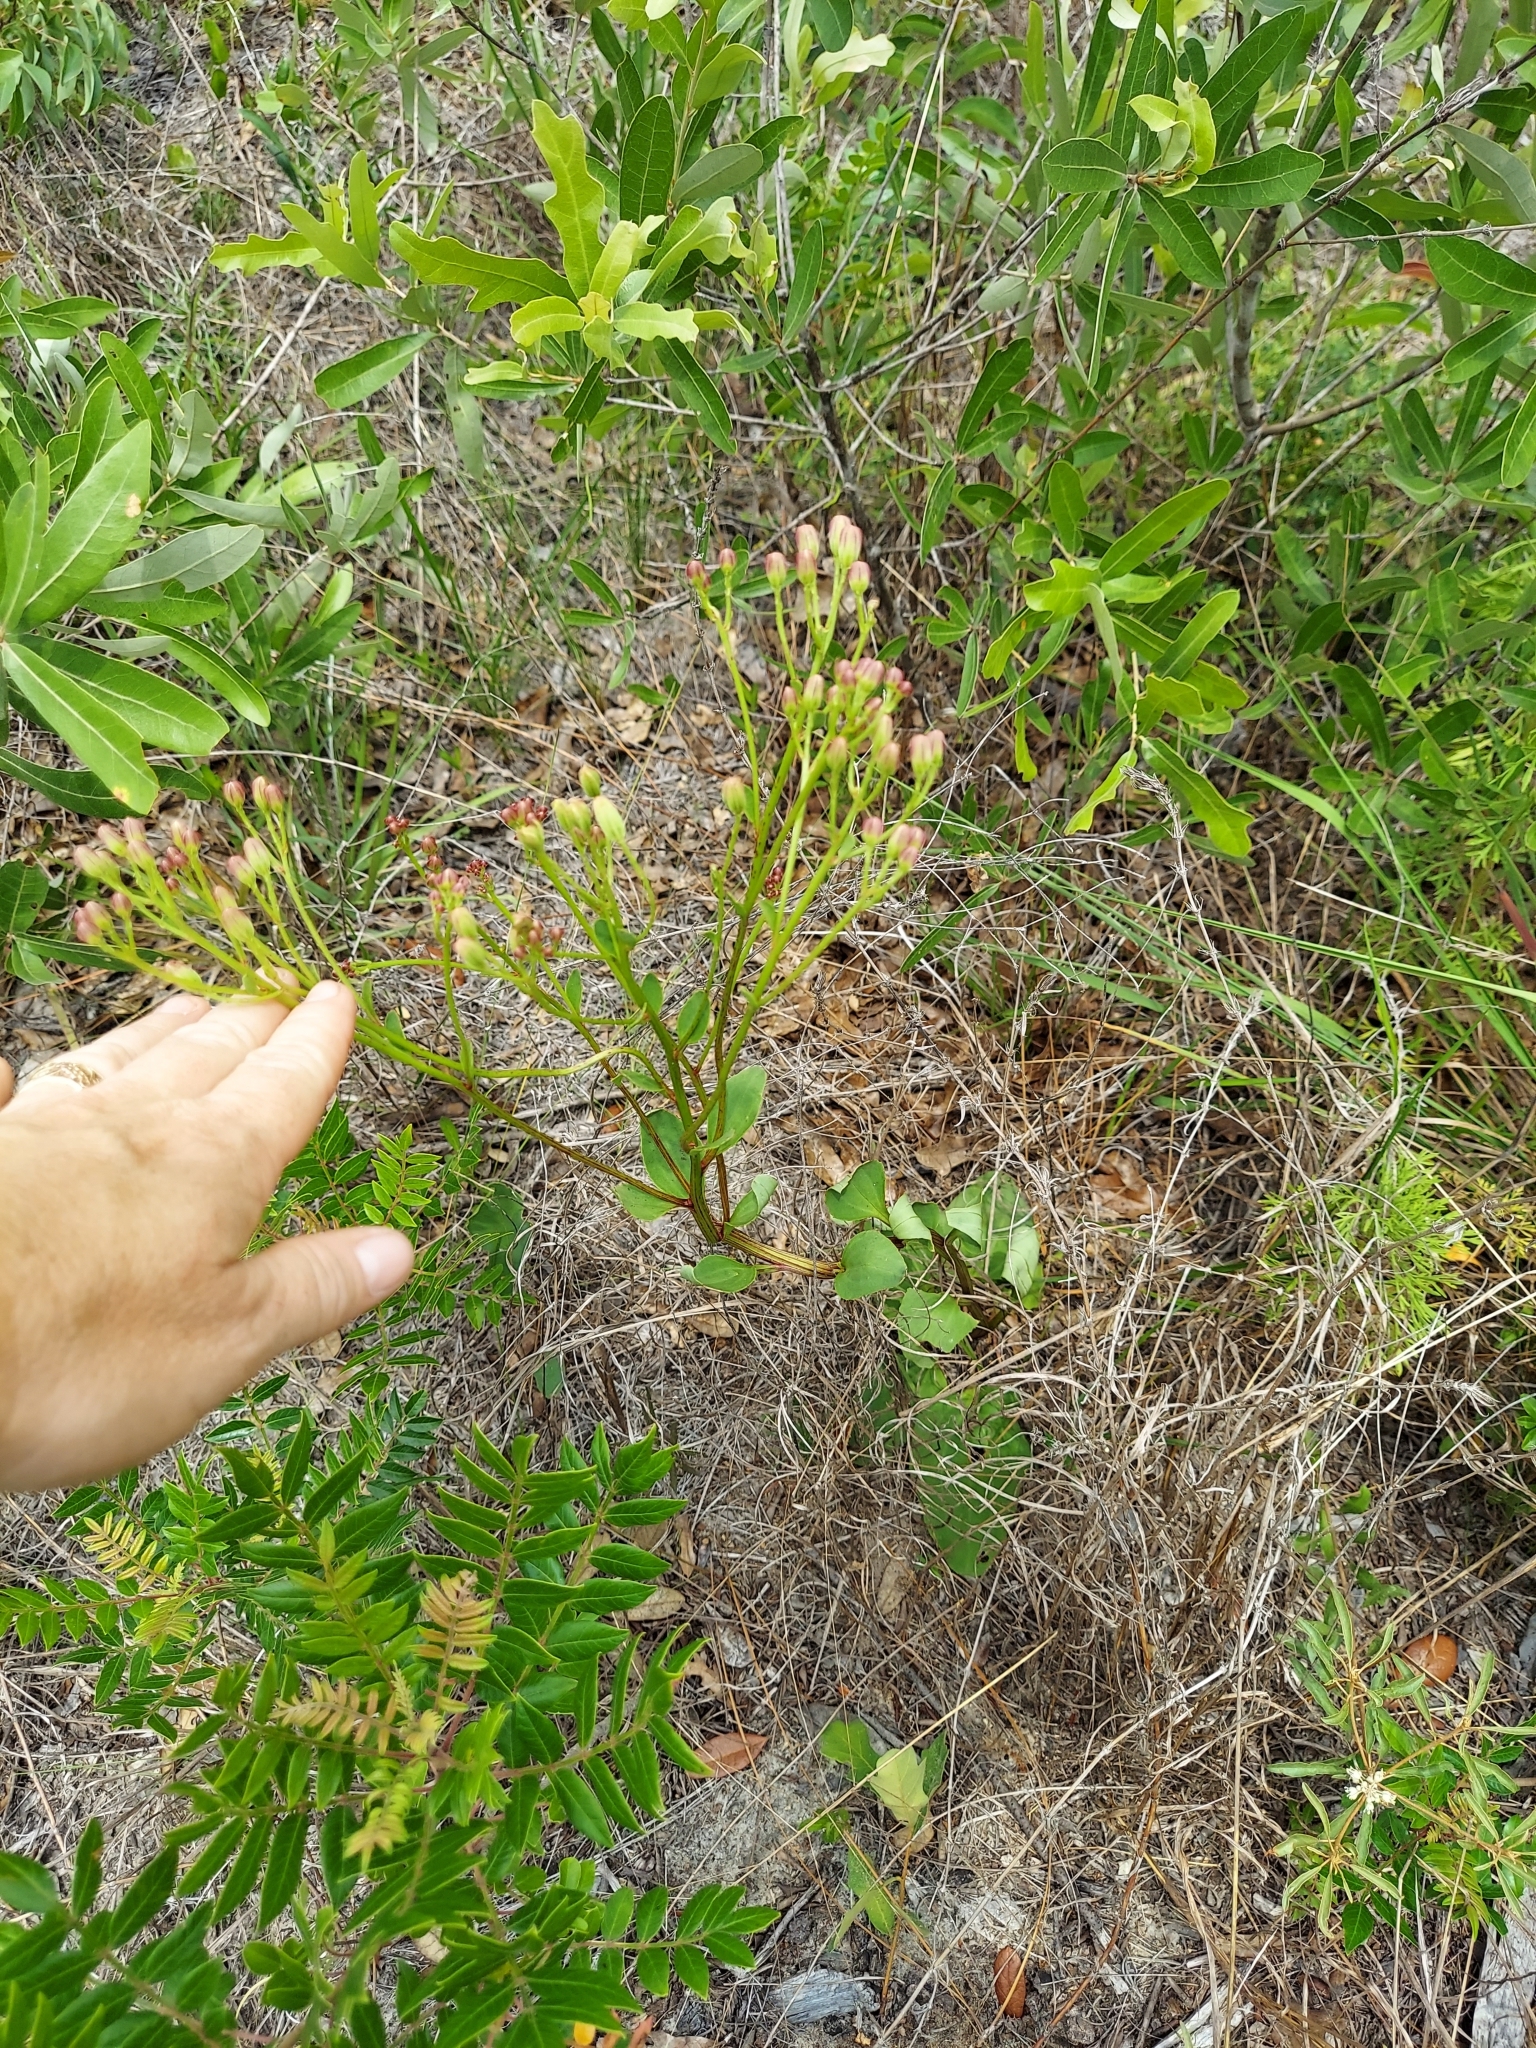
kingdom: Plantae
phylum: Tracheophyta
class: Magnoliopsida
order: Asterales
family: Asteraceae
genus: Arnoglossum
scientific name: Arnoglossum floridanum
